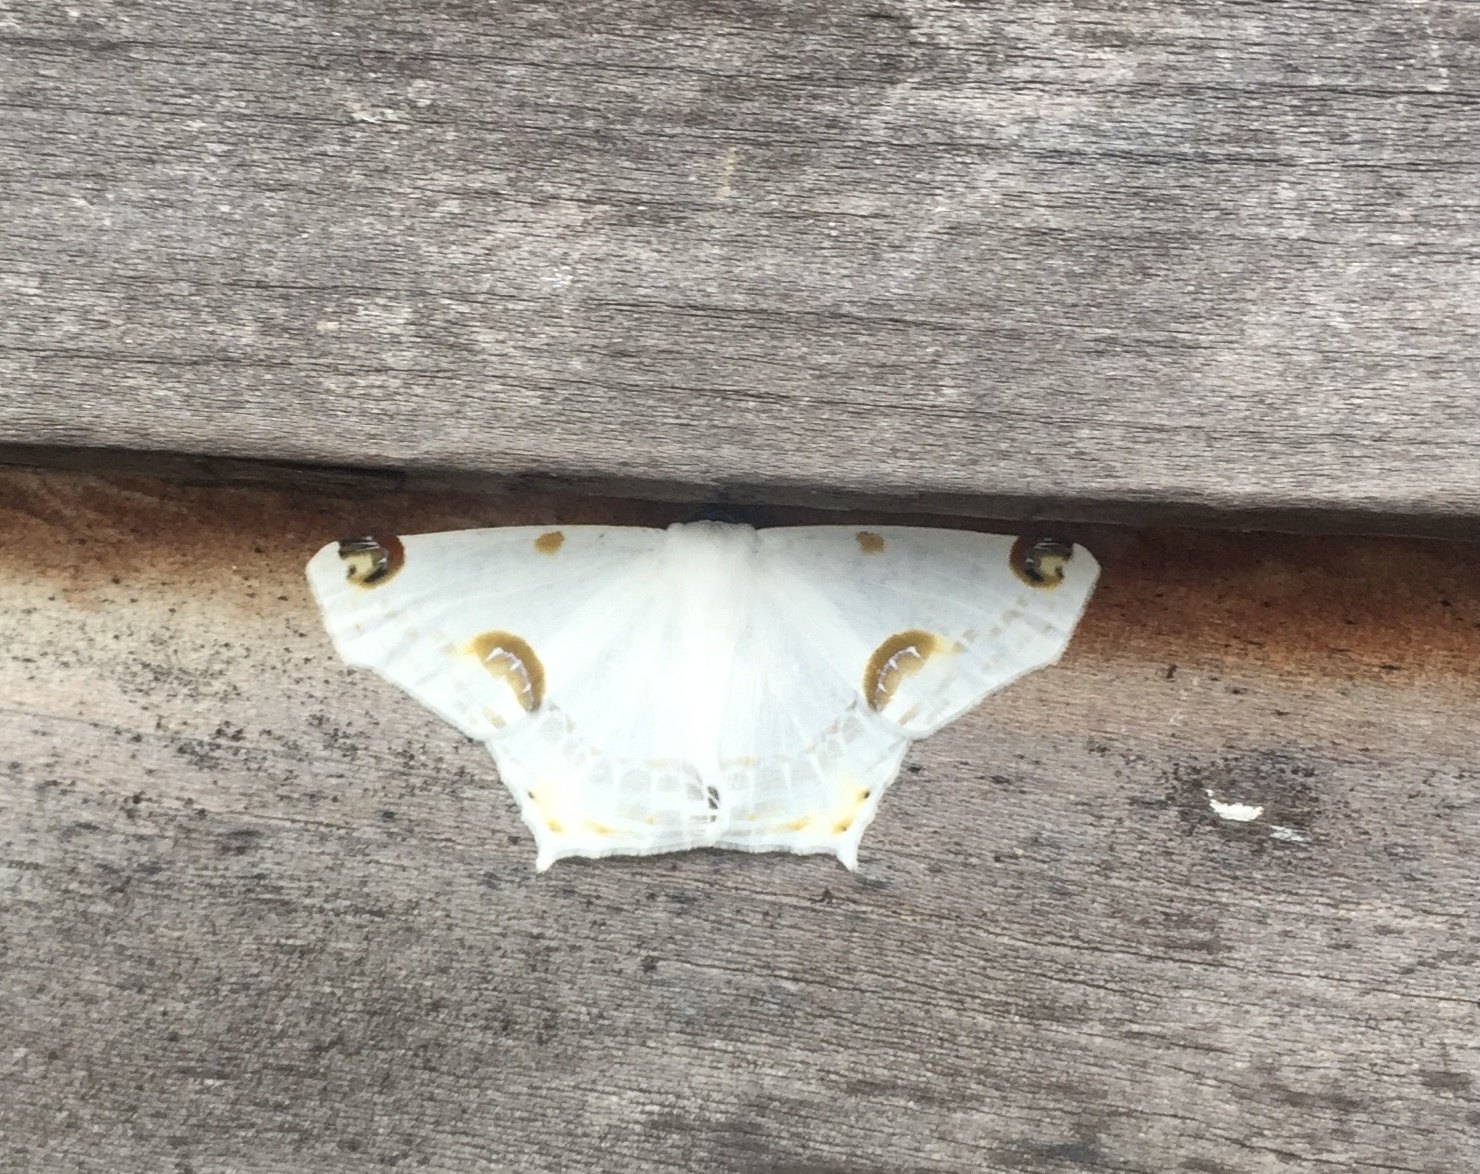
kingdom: Animalia
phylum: Arthropoda
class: Insecta
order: Lepidoptera
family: Geometridae
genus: Sericoptera
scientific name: Sericoptera mahometaria
